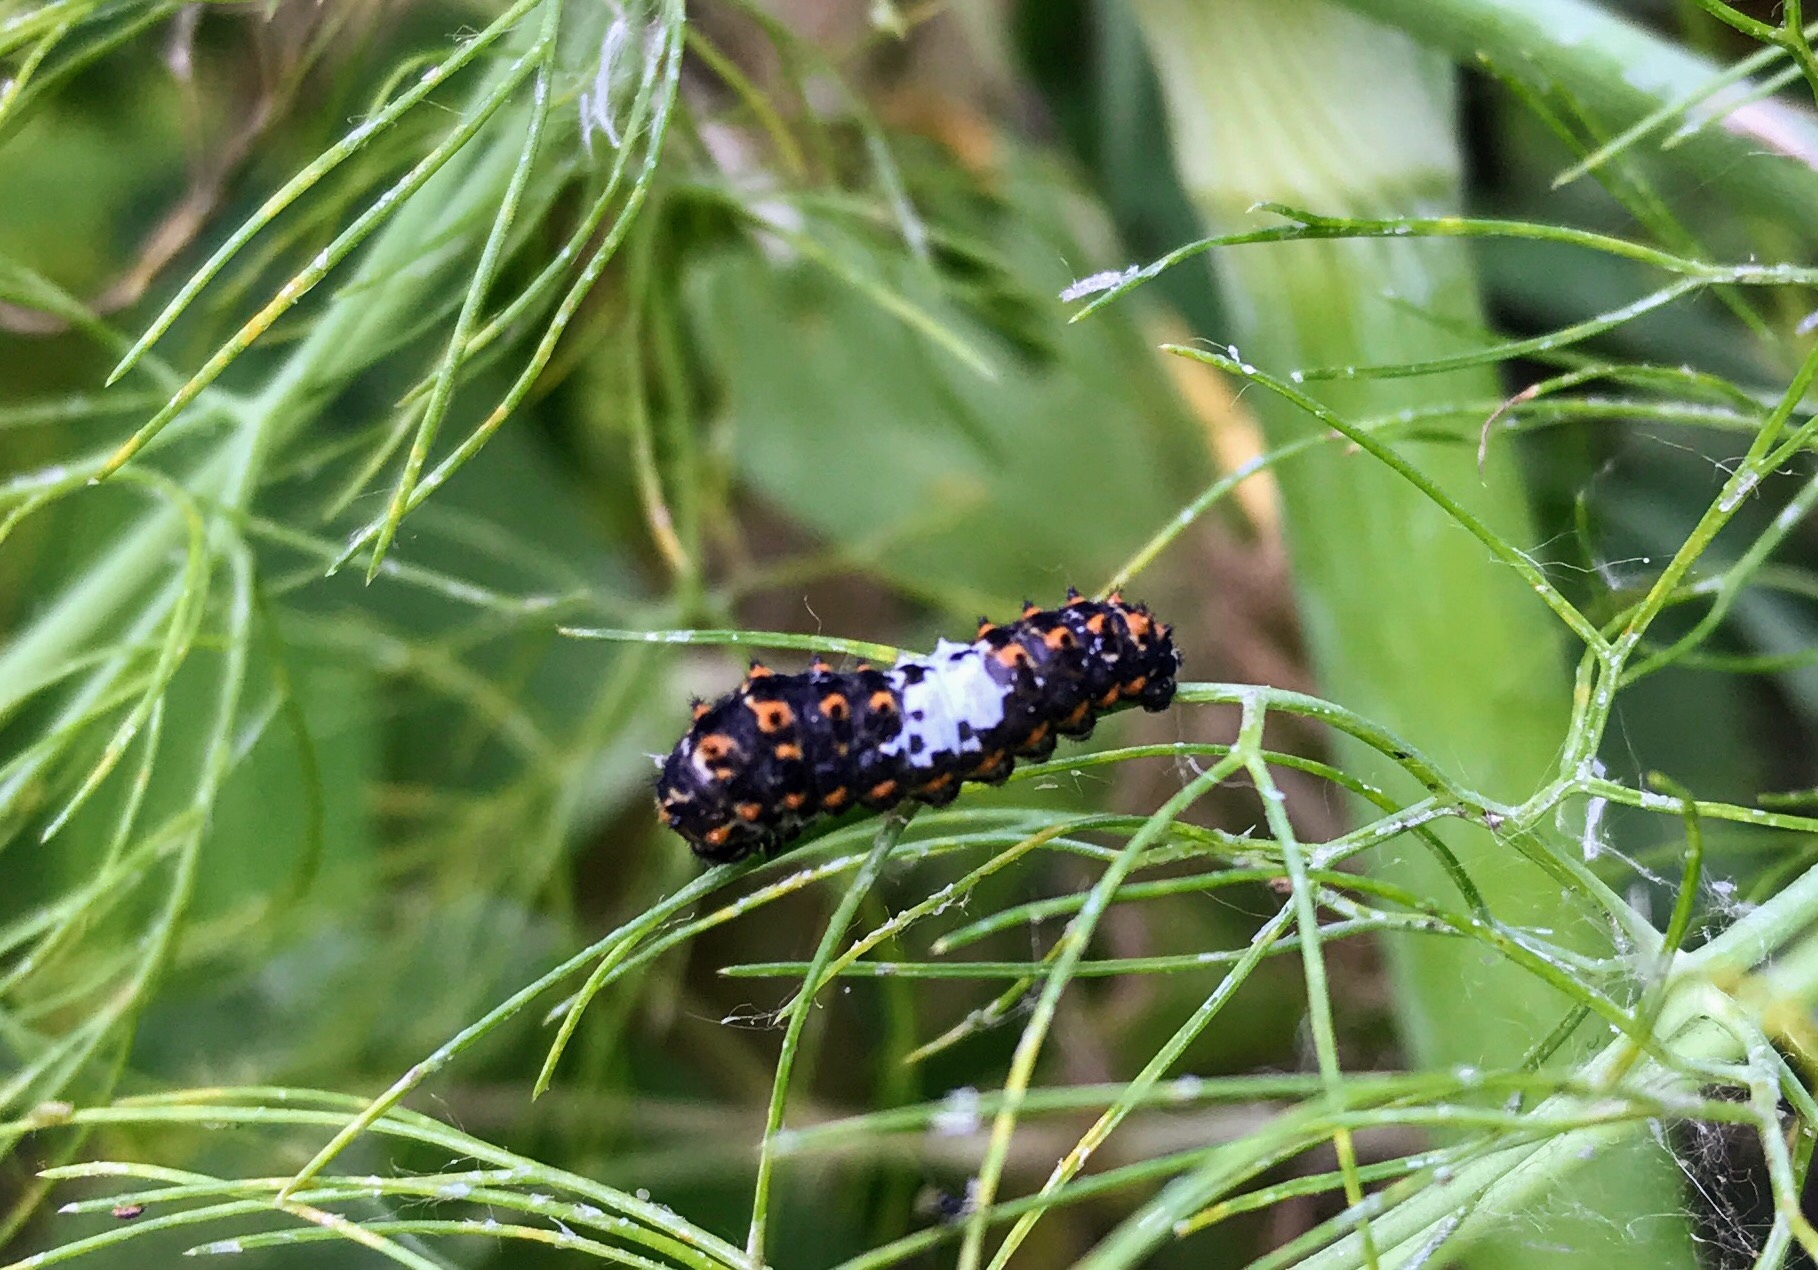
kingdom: Animalia
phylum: Arthropoda
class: Insecta
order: Lepidoptera
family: Papilionidae
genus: Papilio
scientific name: Papilio machaon
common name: Swallowtail
